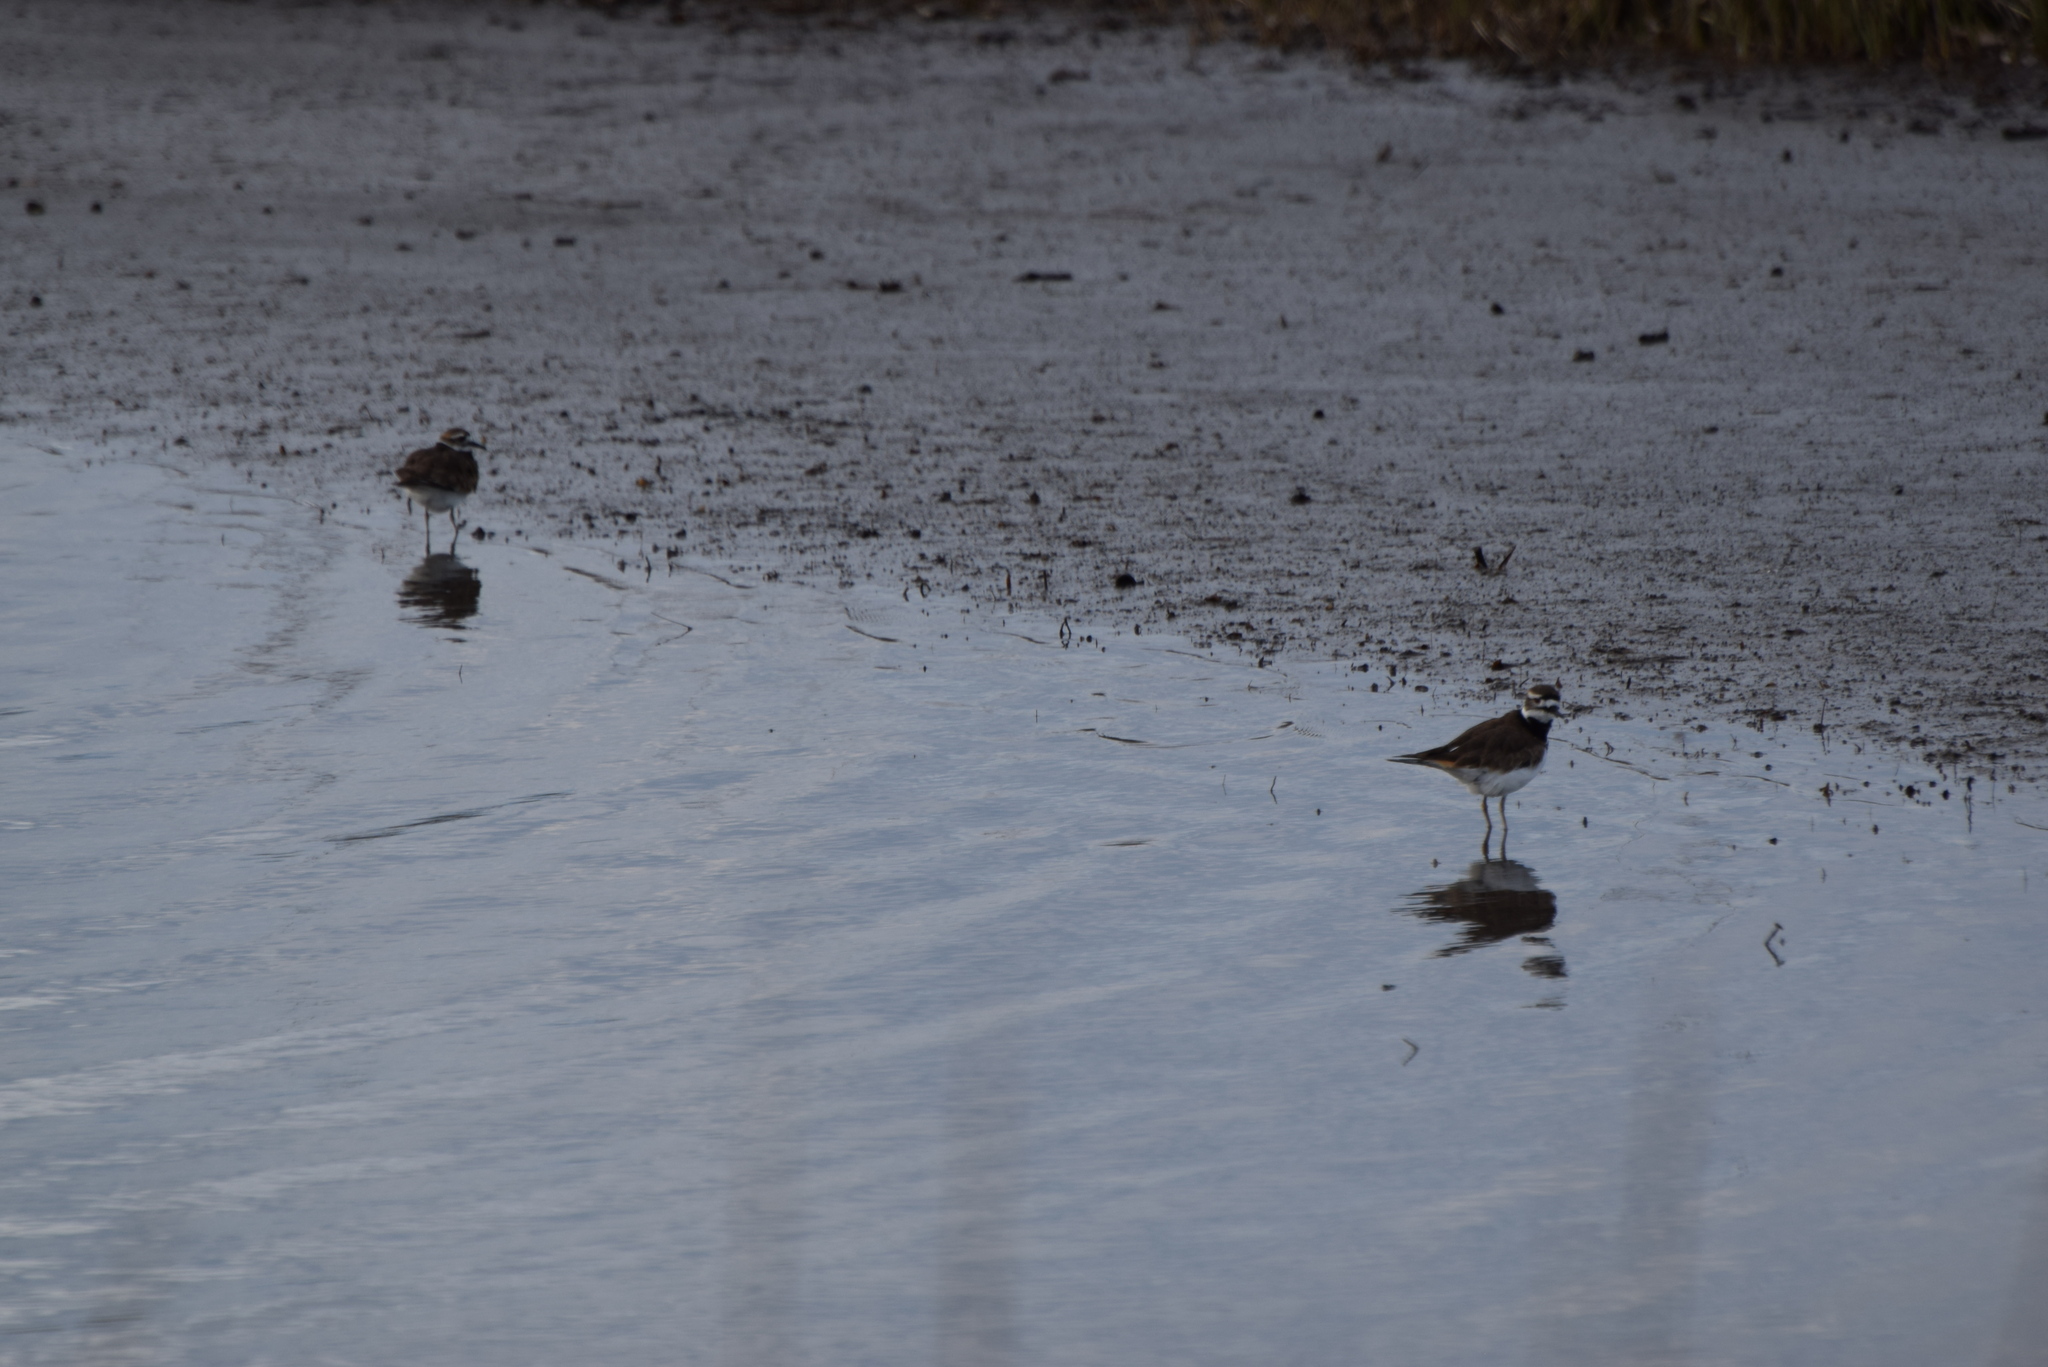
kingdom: Animalia
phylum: Chordata
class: Aves
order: Charadriiformes
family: Charadriidae
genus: Charadrius
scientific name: Charadrius vociferus
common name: Killdeer
